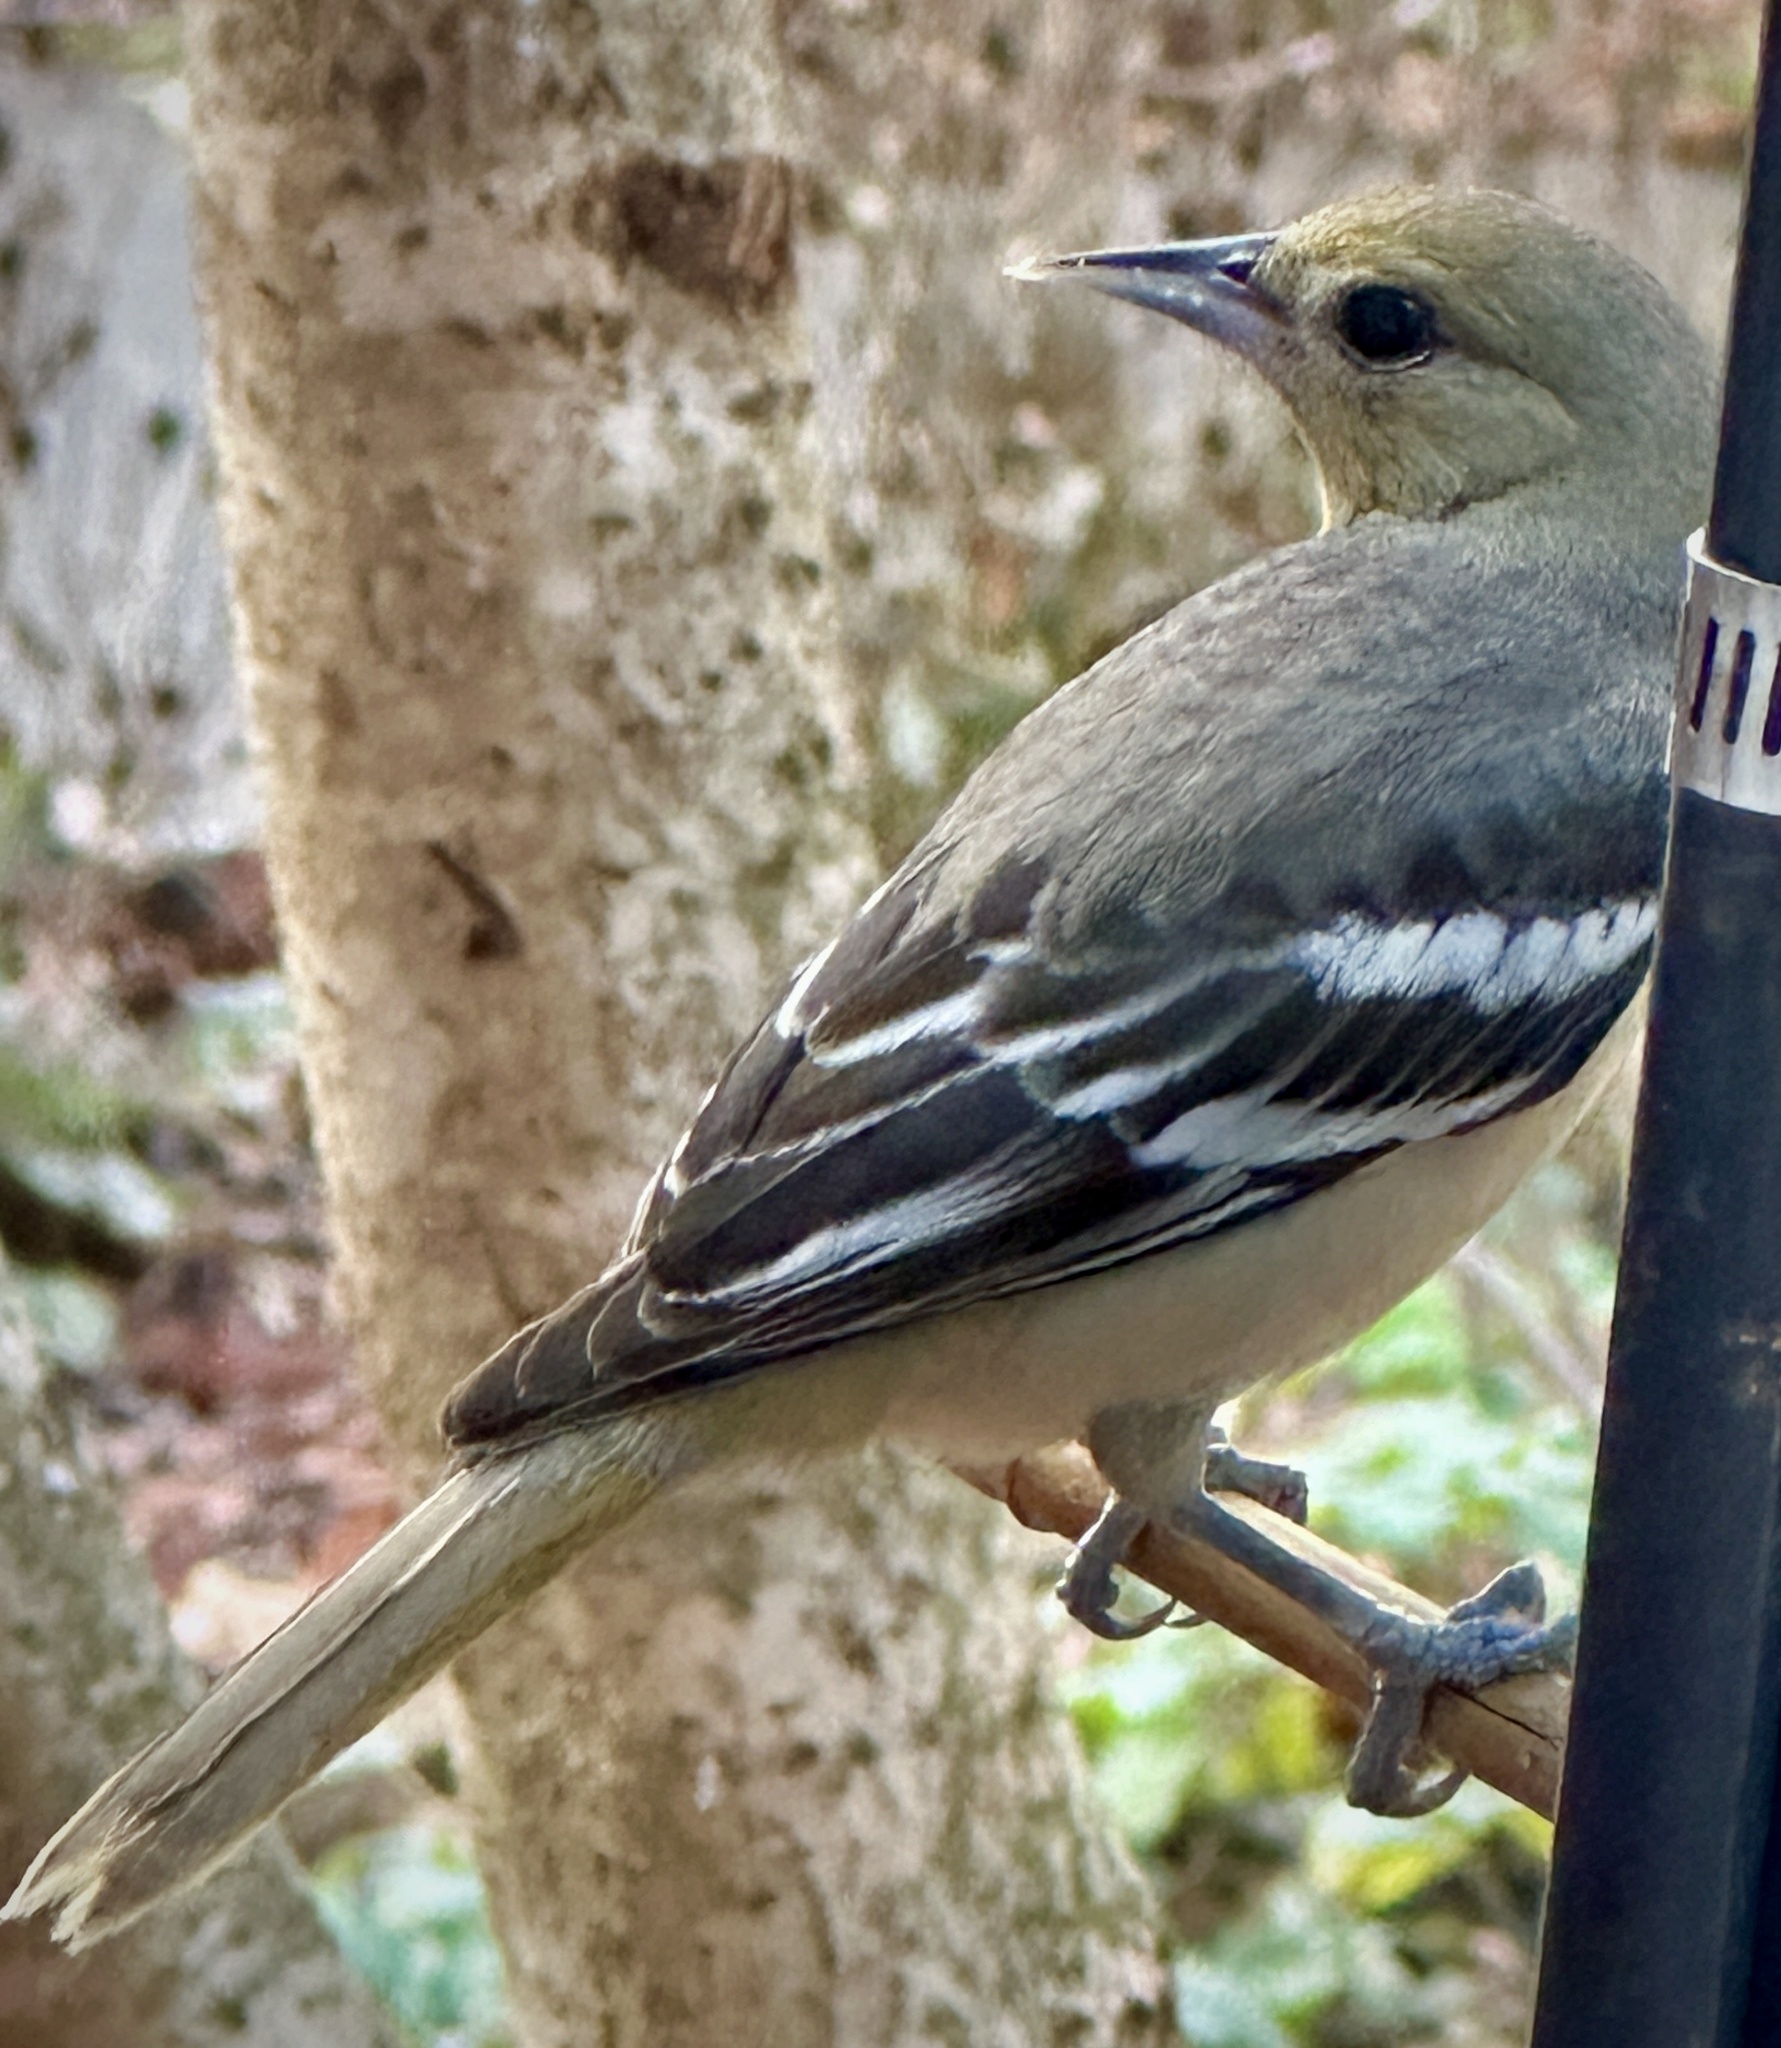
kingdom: Animalia
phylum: Chordata
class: Aves
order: Passeriformes
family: Icteridae
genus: Icterus
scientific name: Icterus galbula
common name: Baltimore oriole
